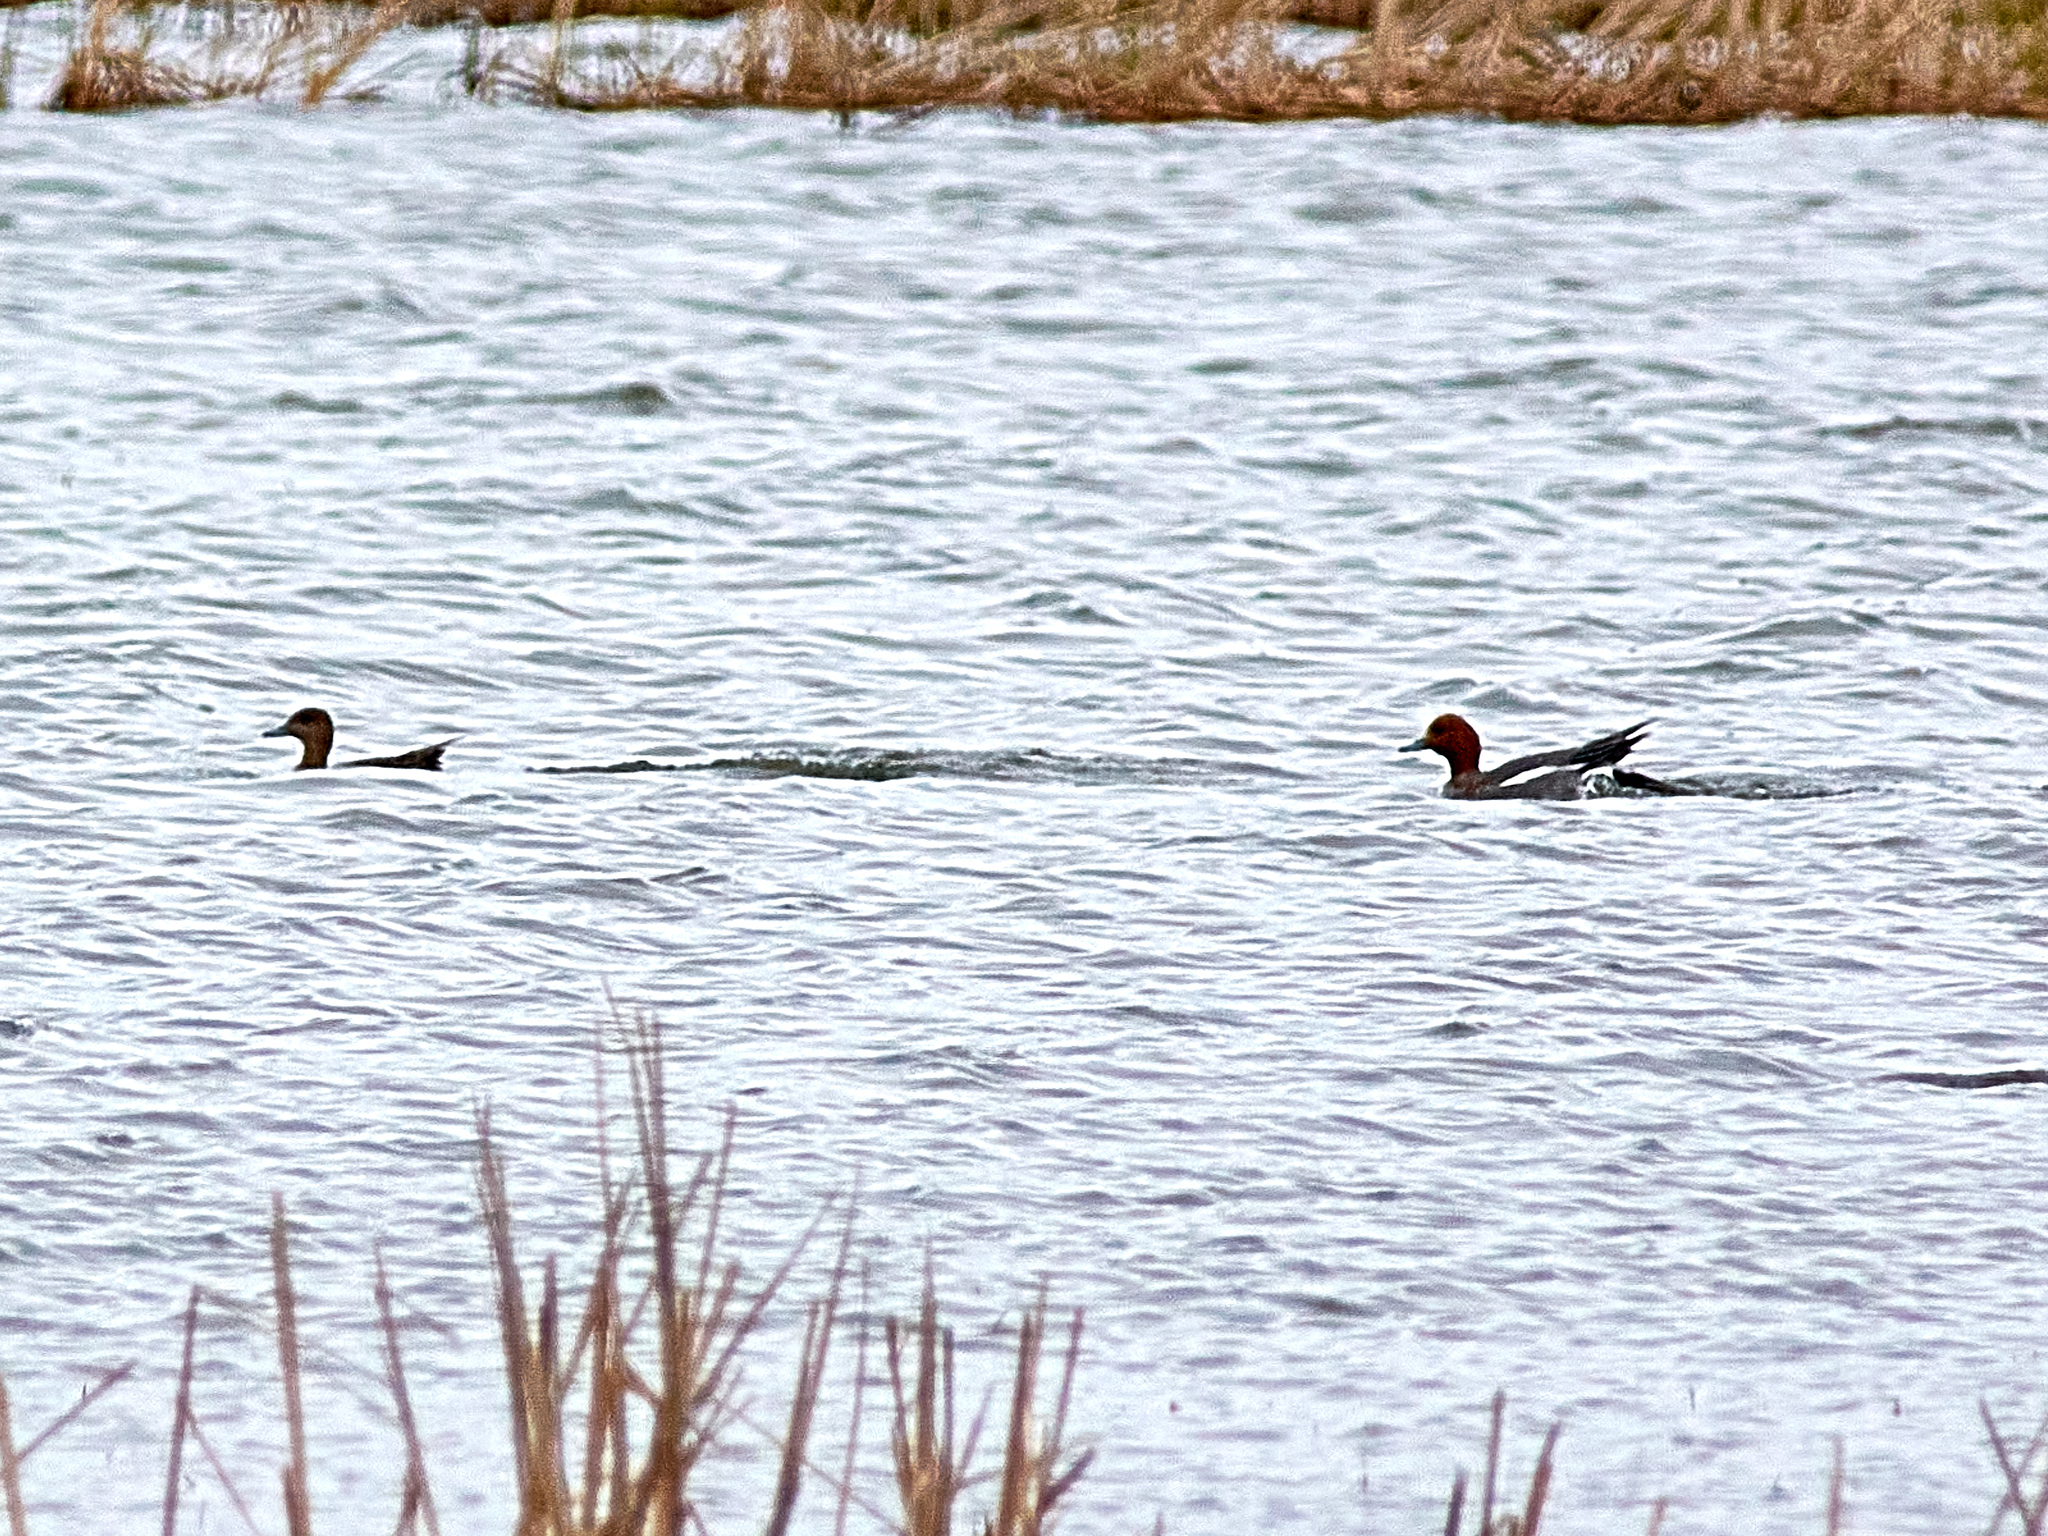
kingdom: Animalia
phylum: Chordata
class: Aves
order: Anseriformes
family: Anatidae
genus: Mareca
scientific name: Mareca penelope
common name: Eurasian wigeon
